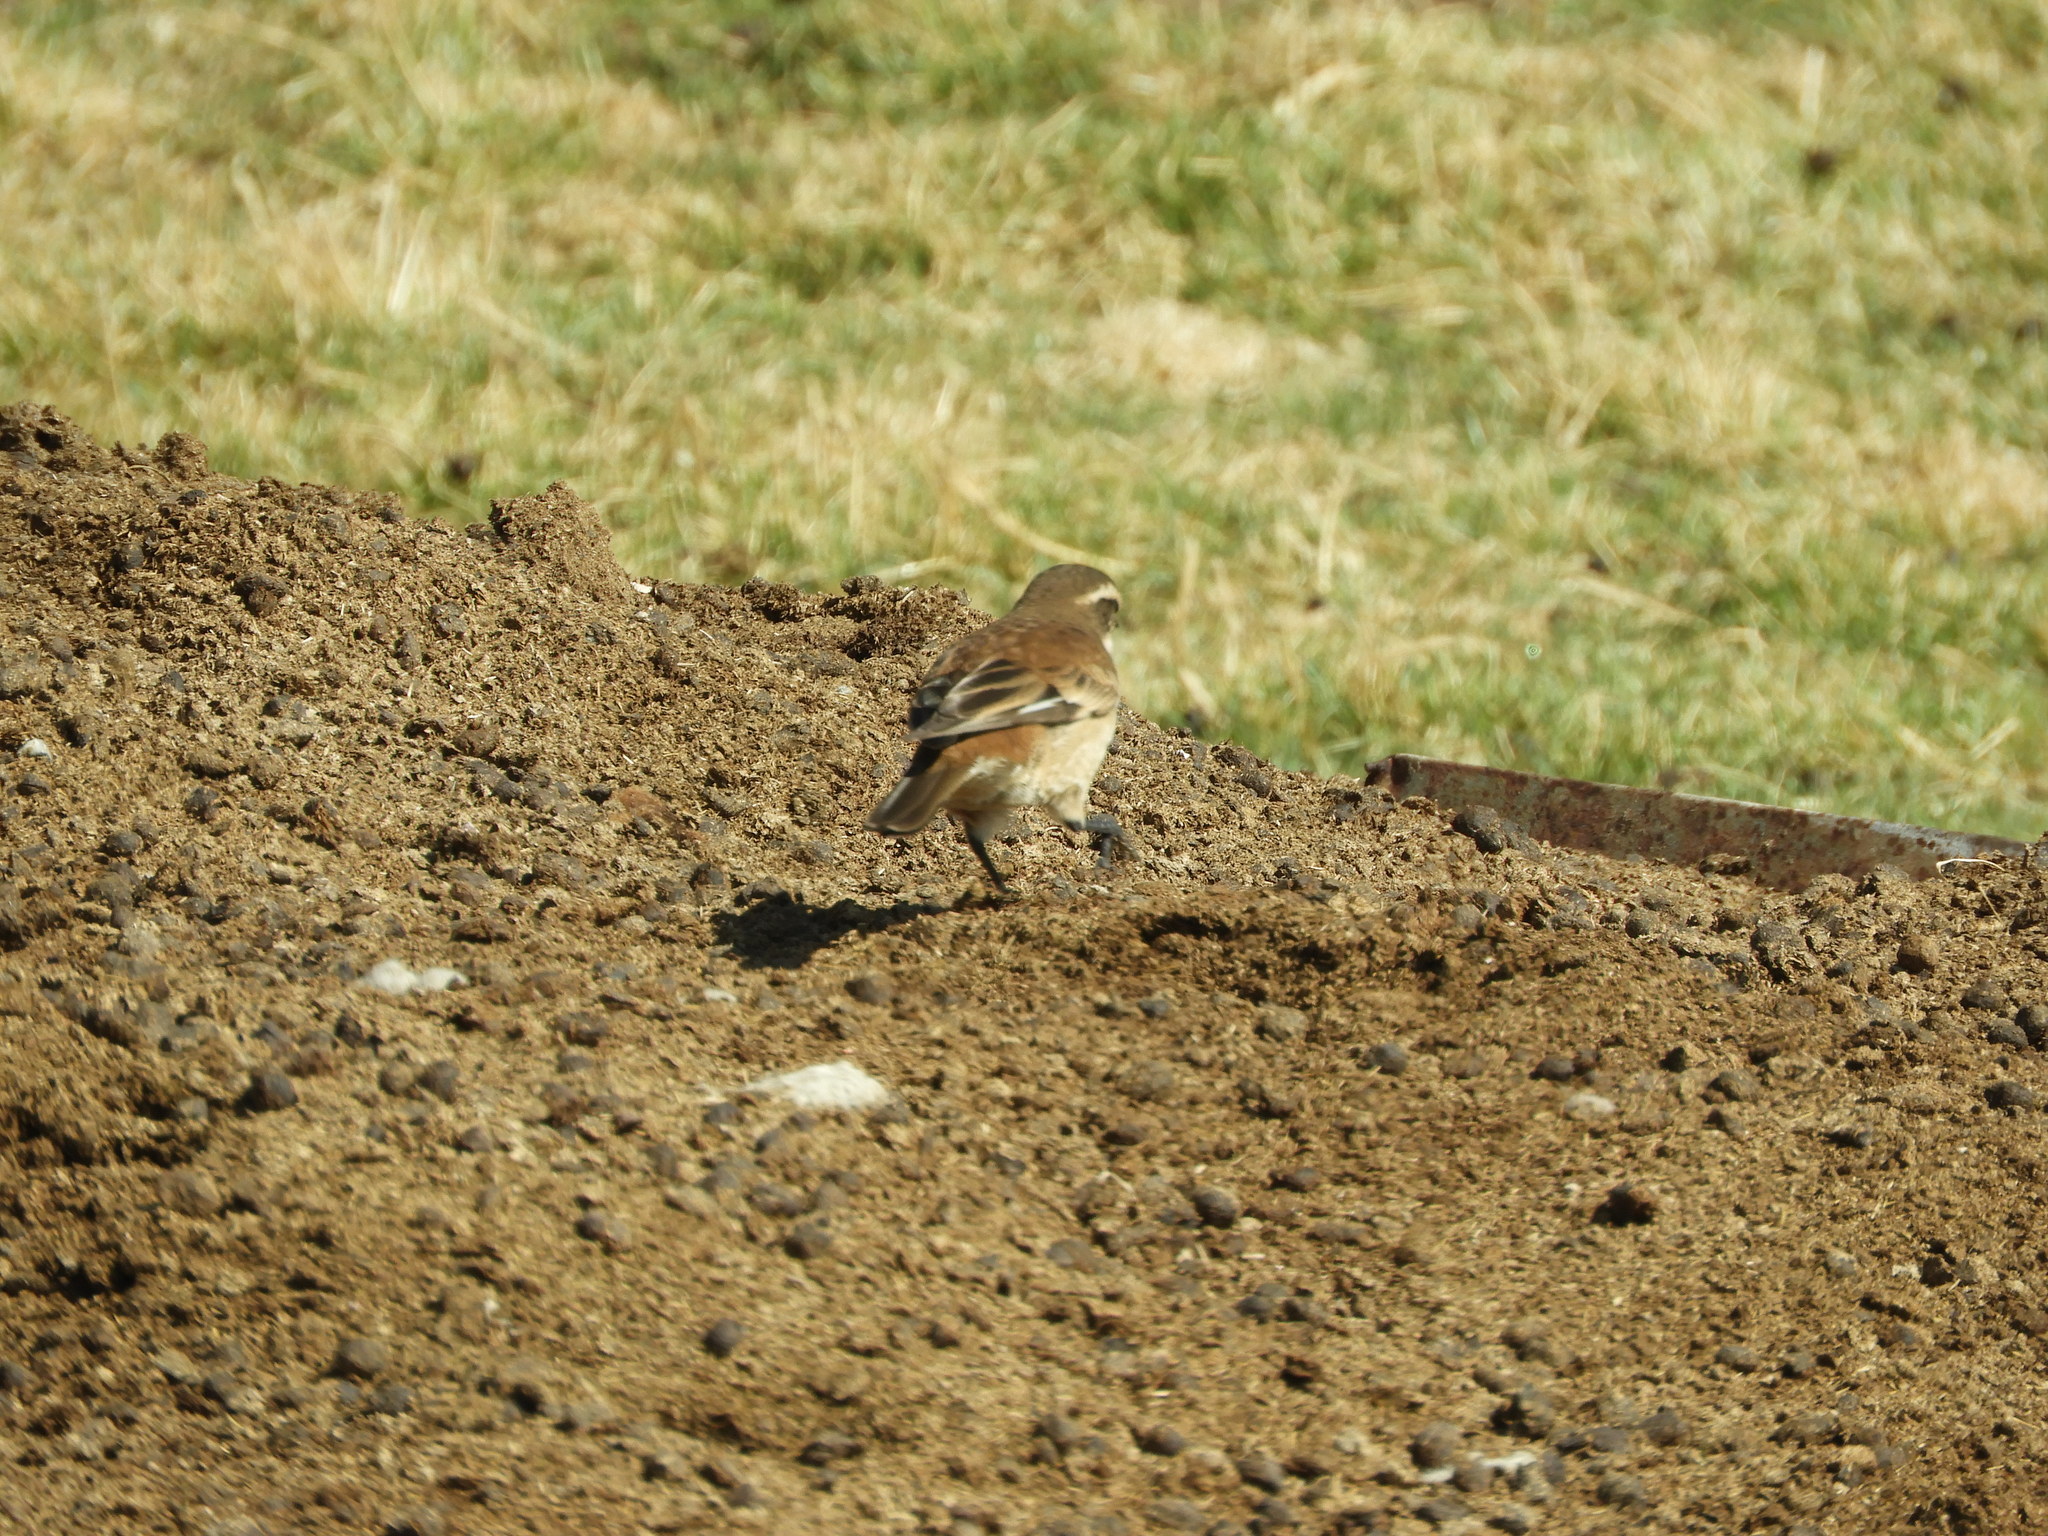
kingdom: Animalia
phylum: Chordata
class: Aves
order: Passeriformes
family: Furnariidae
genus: Cinclodes
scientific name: Cinclodes fuscus
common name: Buff-winged cinclodes
